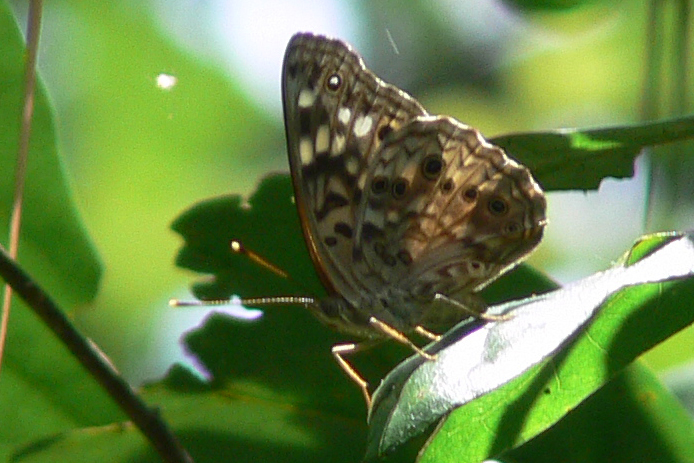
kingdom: Animalia
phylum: Arthropoda
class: Insecta
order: Lepidoptera
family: Nymphalidae
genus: Asterocampa
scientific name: Asterocampa celtis
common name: Hackberry emperor
